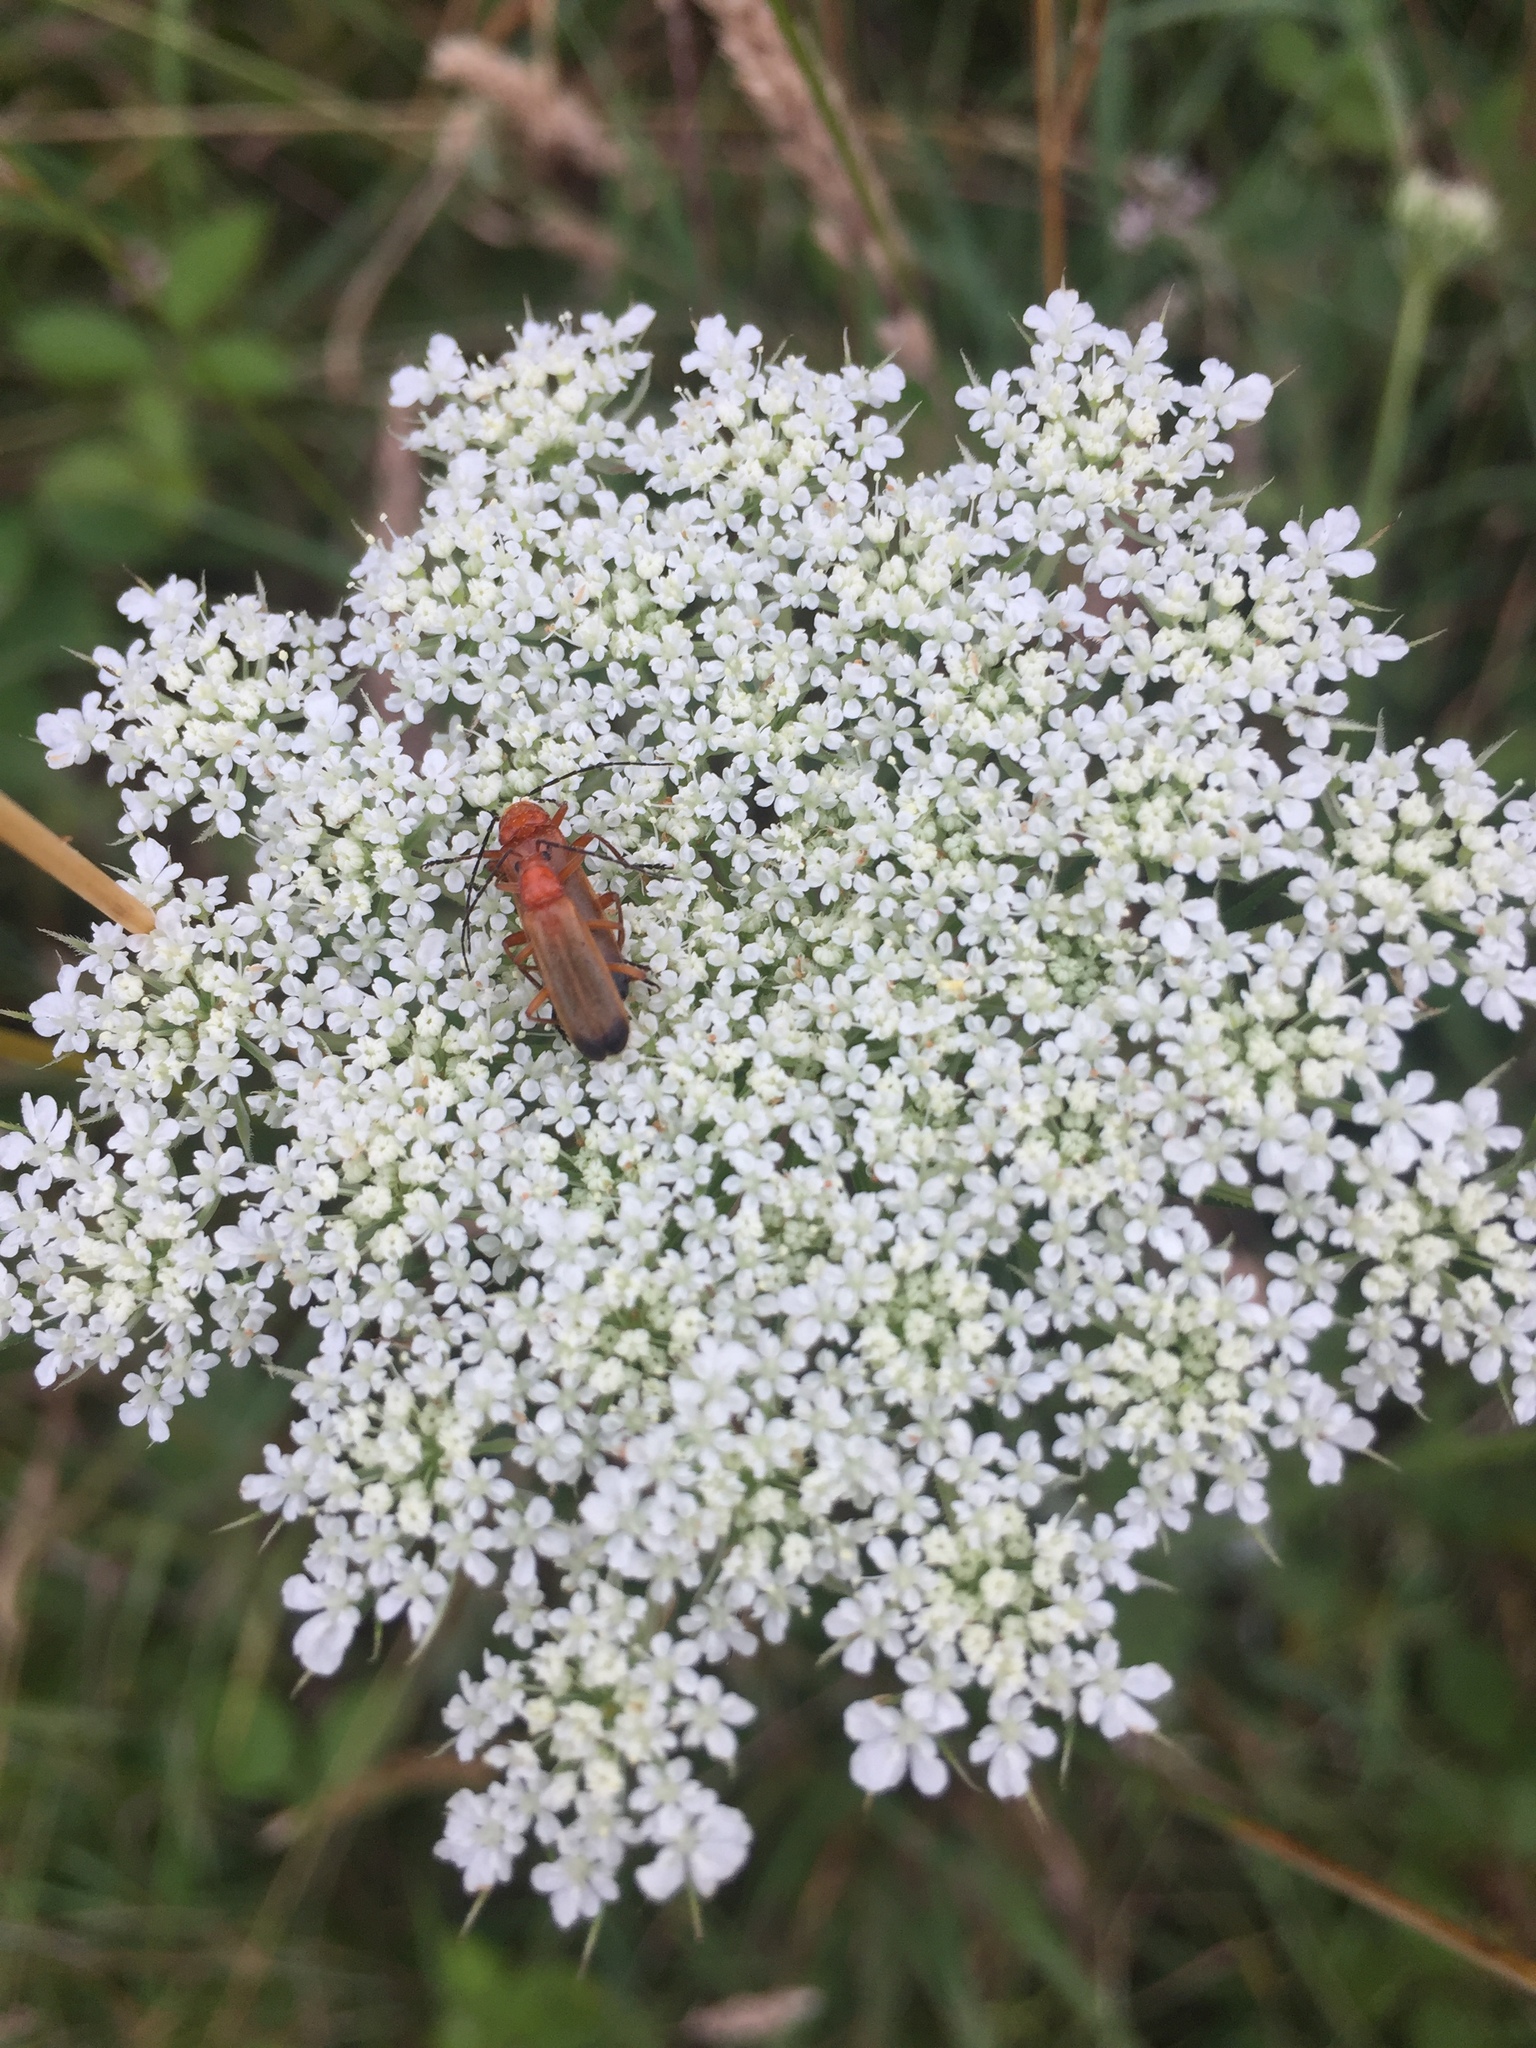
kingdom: Animalia
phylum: Arthropoda
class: Insecta
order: Coleoptera
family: Cantharidae
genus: Rhagonycha
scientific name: Rhagonycha fulva
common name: Common red soldier beetle
